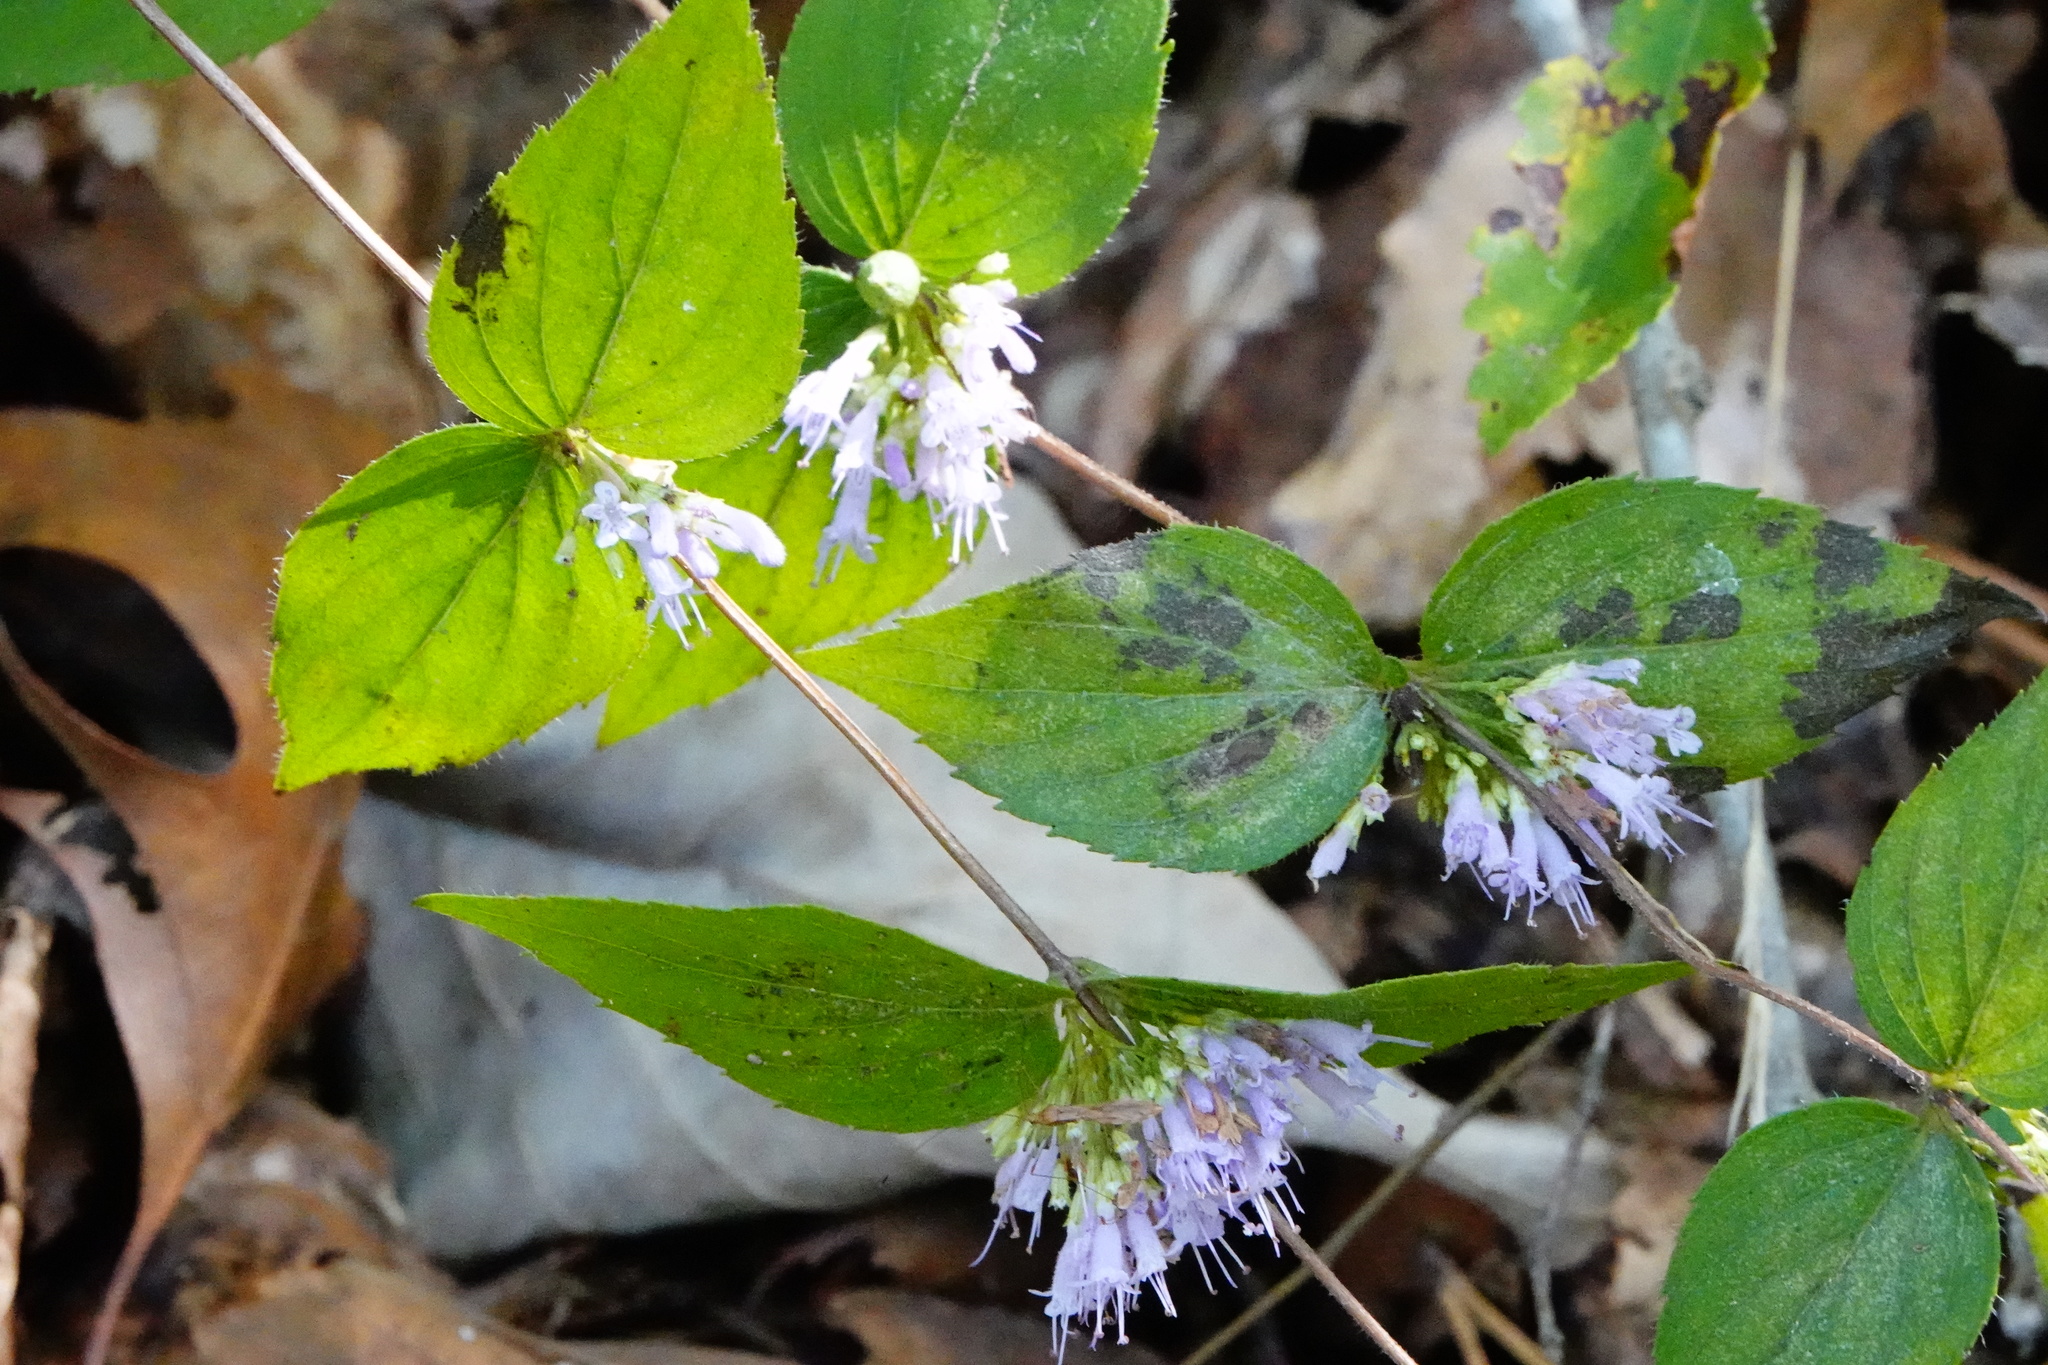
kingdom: Plantae
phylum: Tracheophyta
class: Magnoliopsida
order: Lamiales
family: Lamiaceae
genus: Cunila
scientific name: Cunila origanoides
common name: American dittany
